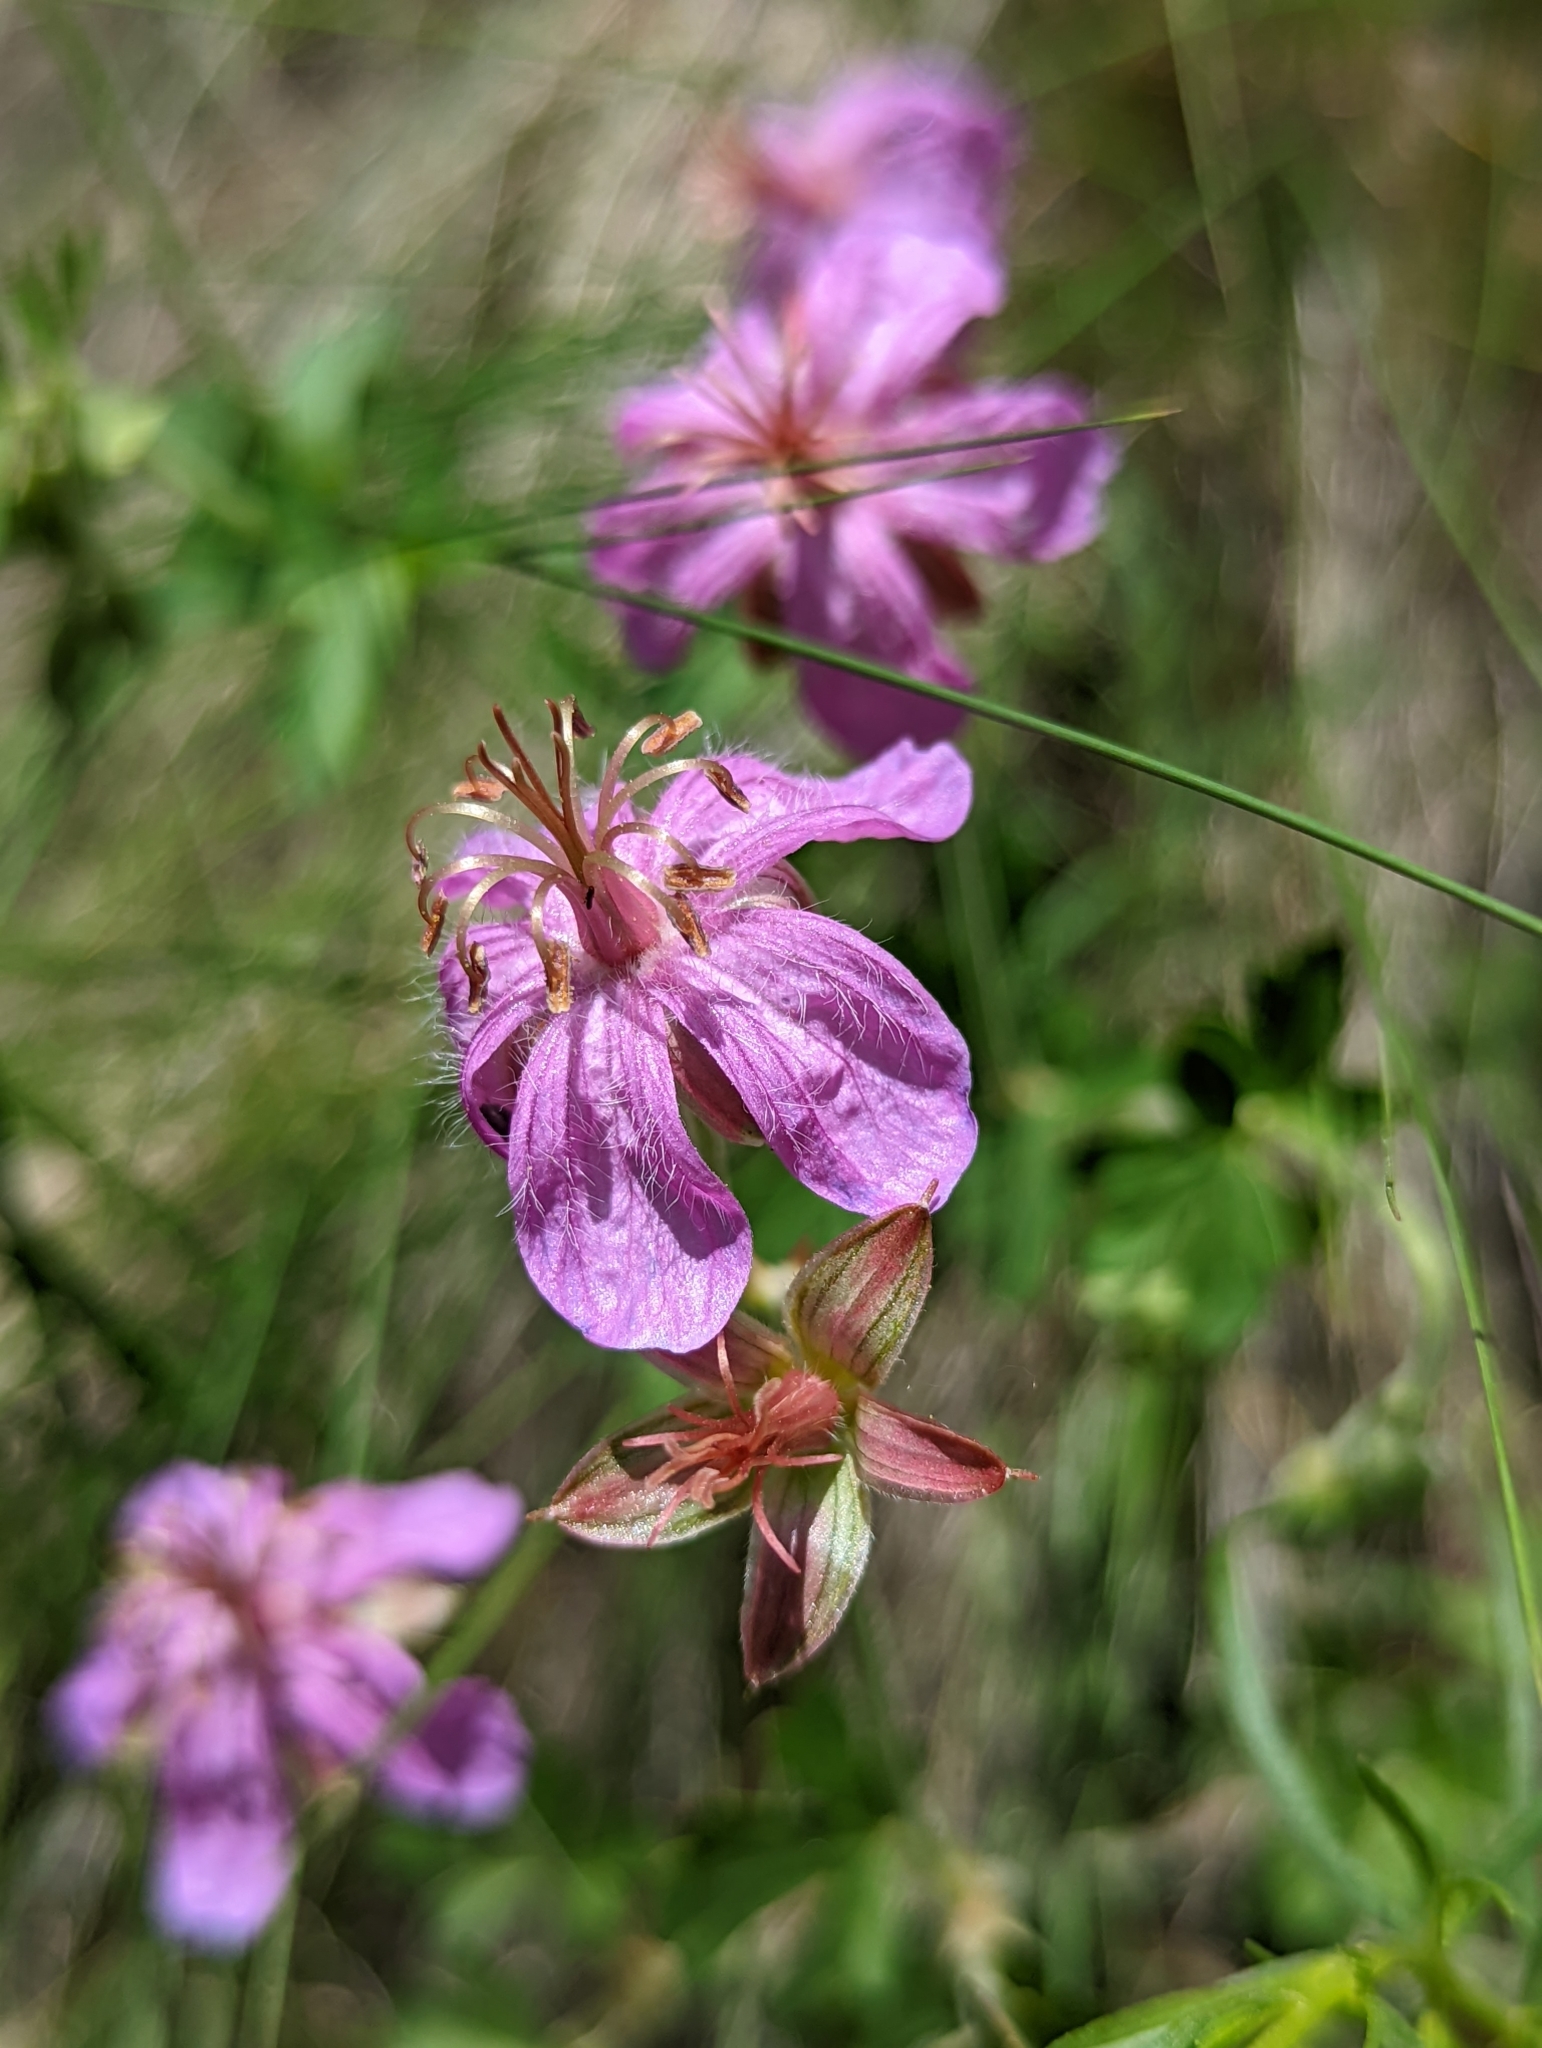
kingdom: Plantae
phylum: Tracheophyta
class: Magnoliopsida
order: Geraniales
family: Geraniaceae
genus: Geranium
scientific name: Geranium caespitosum
